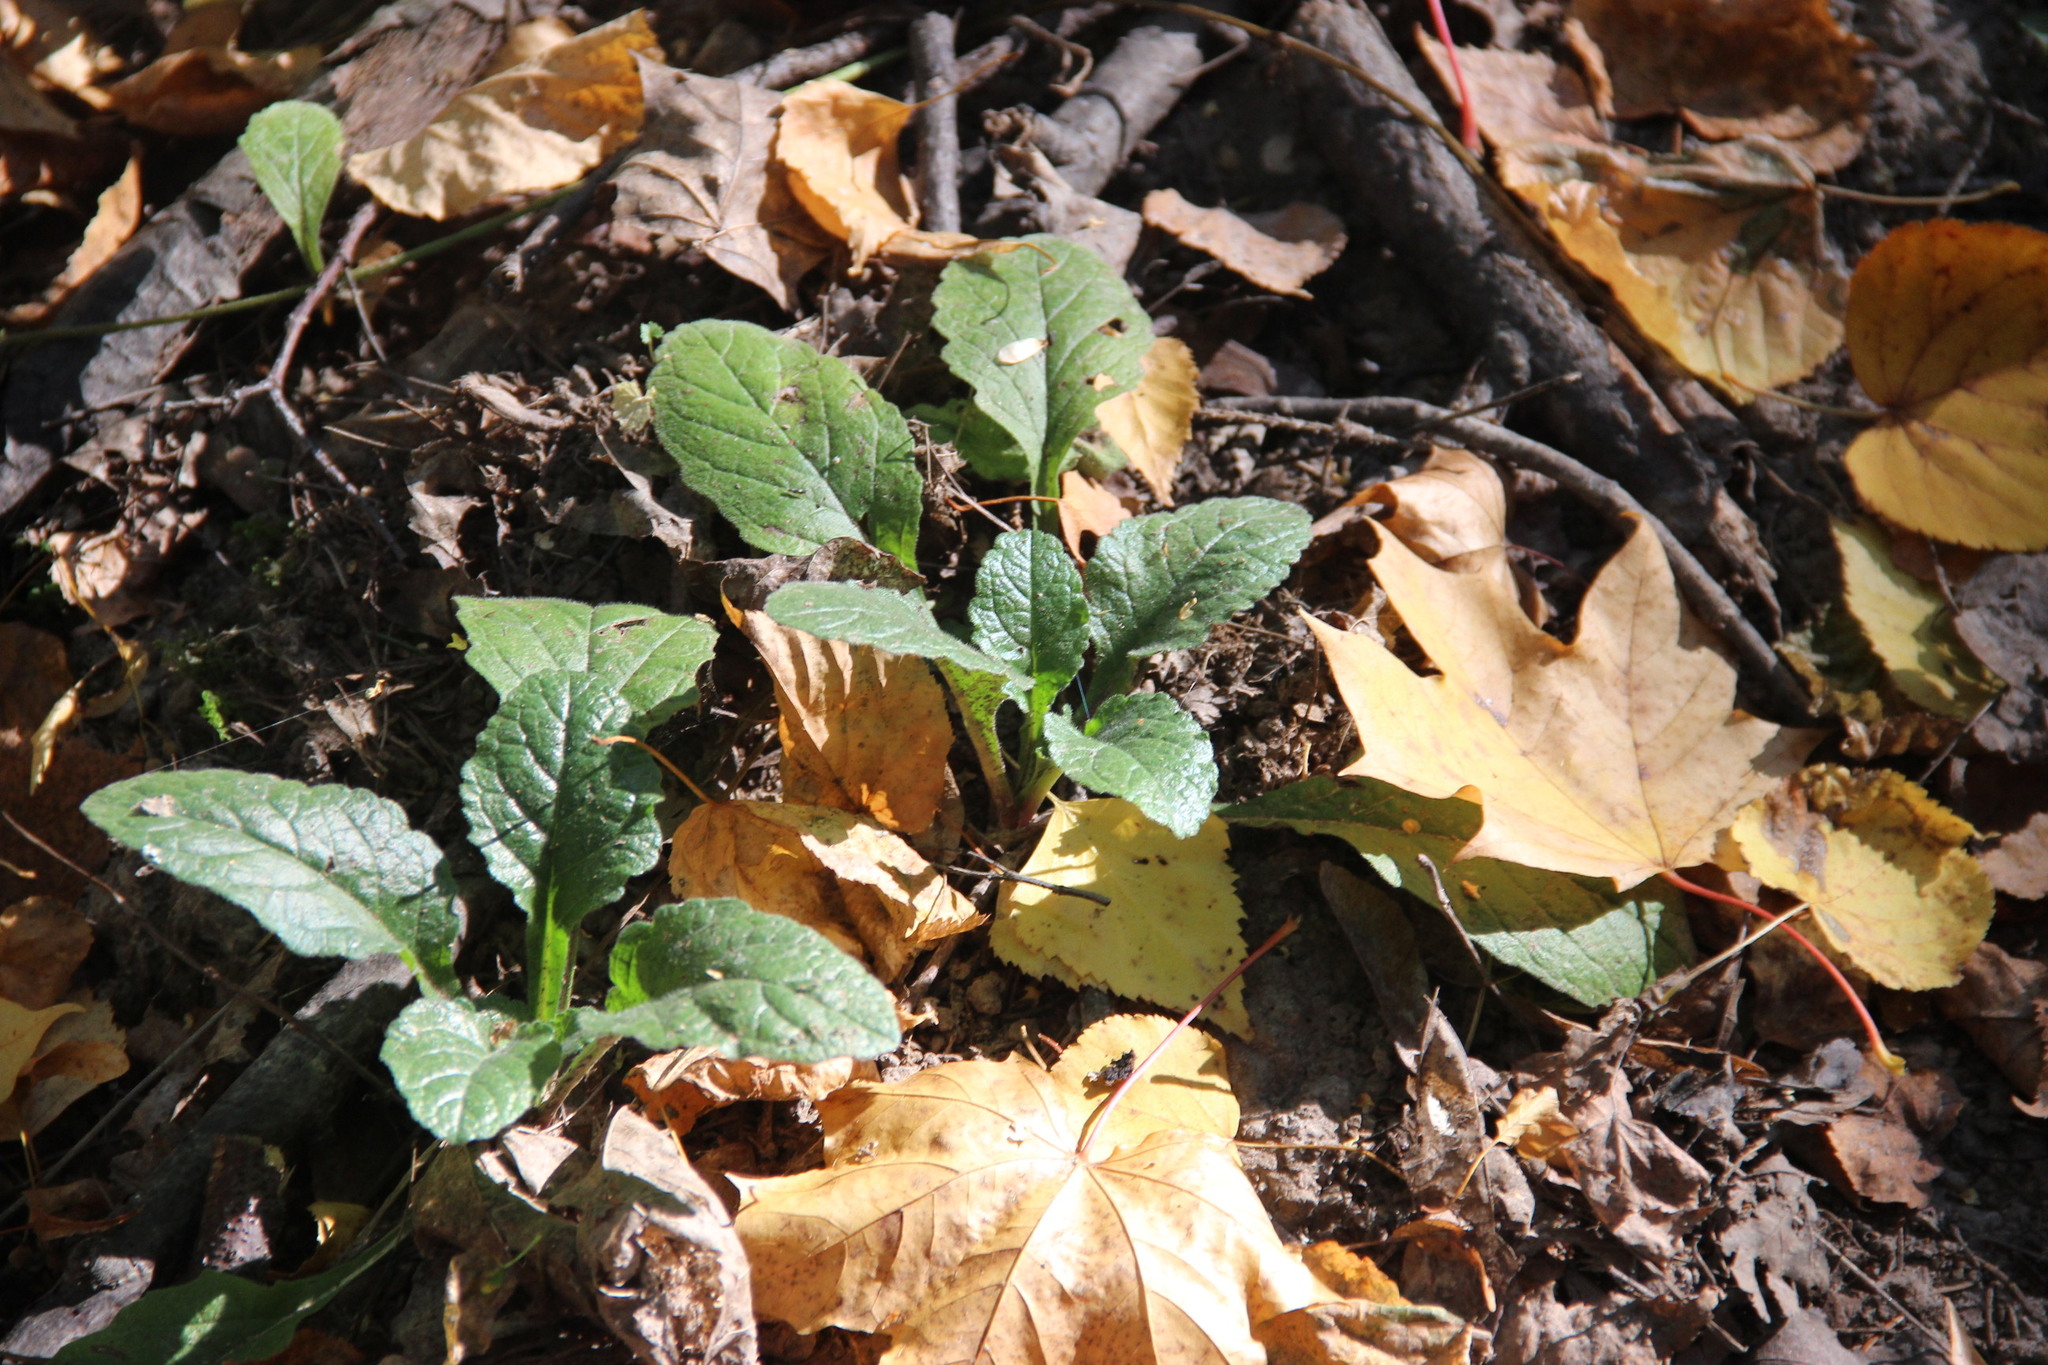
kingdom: Plantae
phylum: Tracheophyta
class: Magnoliopsida
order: Lamiales
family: Lamiaceae
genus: Ajuga
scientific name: Ajuga reptans
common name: Bugle
